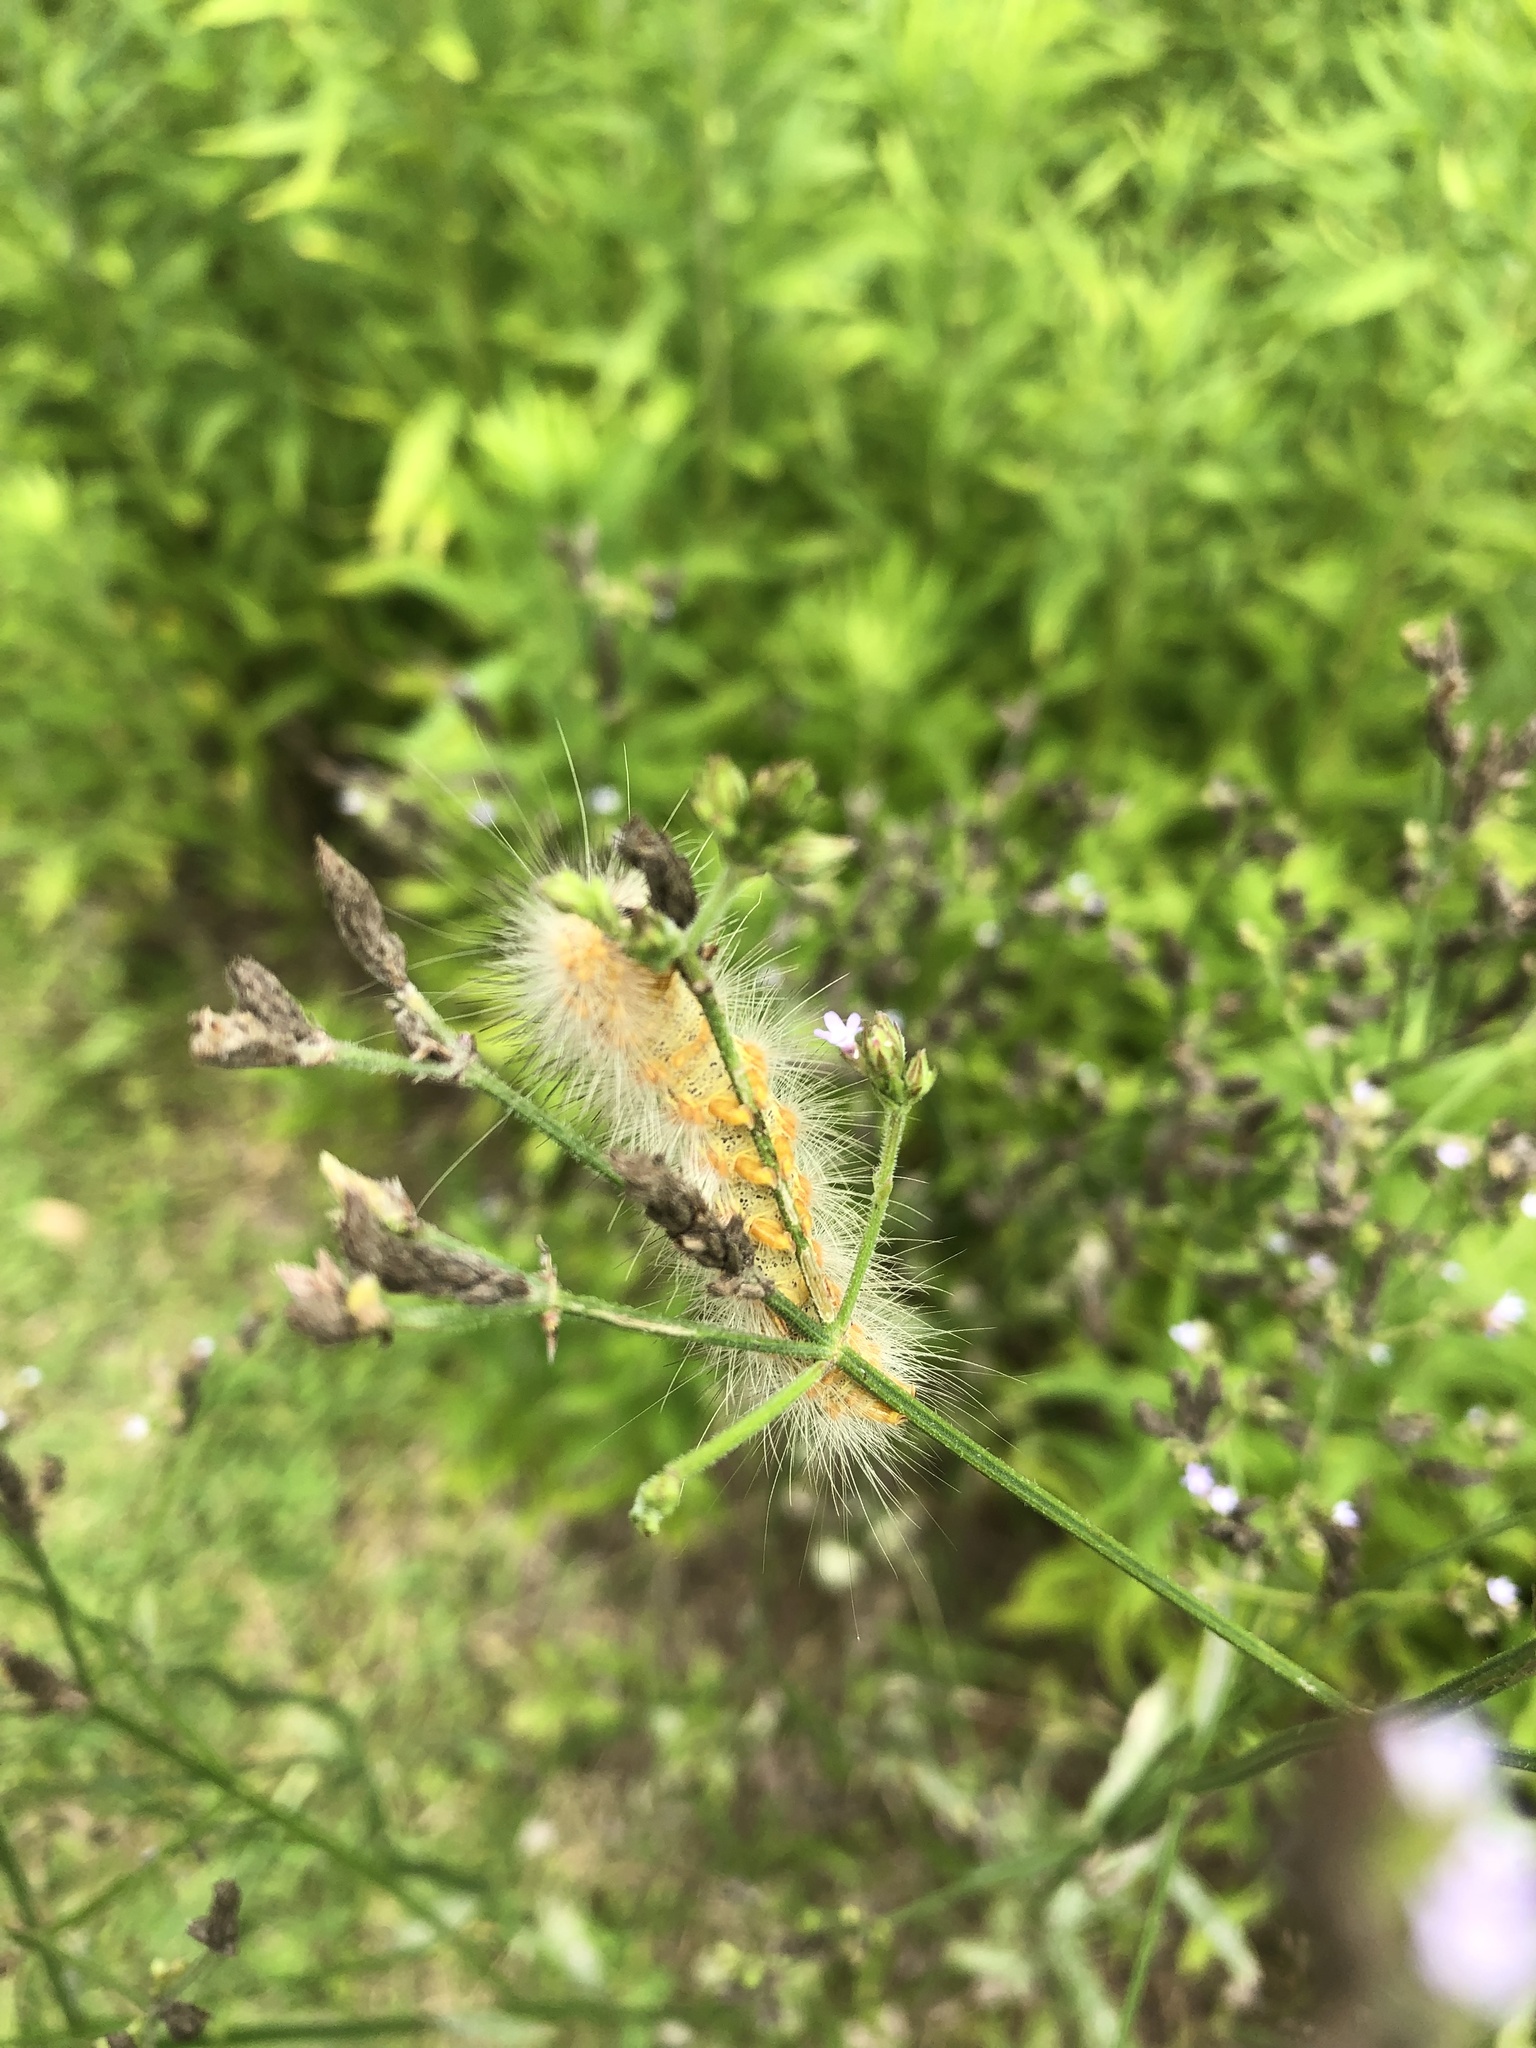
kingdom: Animalia
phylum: Arthropoda
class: Insecta
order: Lepidoptera
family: Erebidae
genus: Estigmene
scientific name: Estigmene acrea
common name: Salt marsh moth
